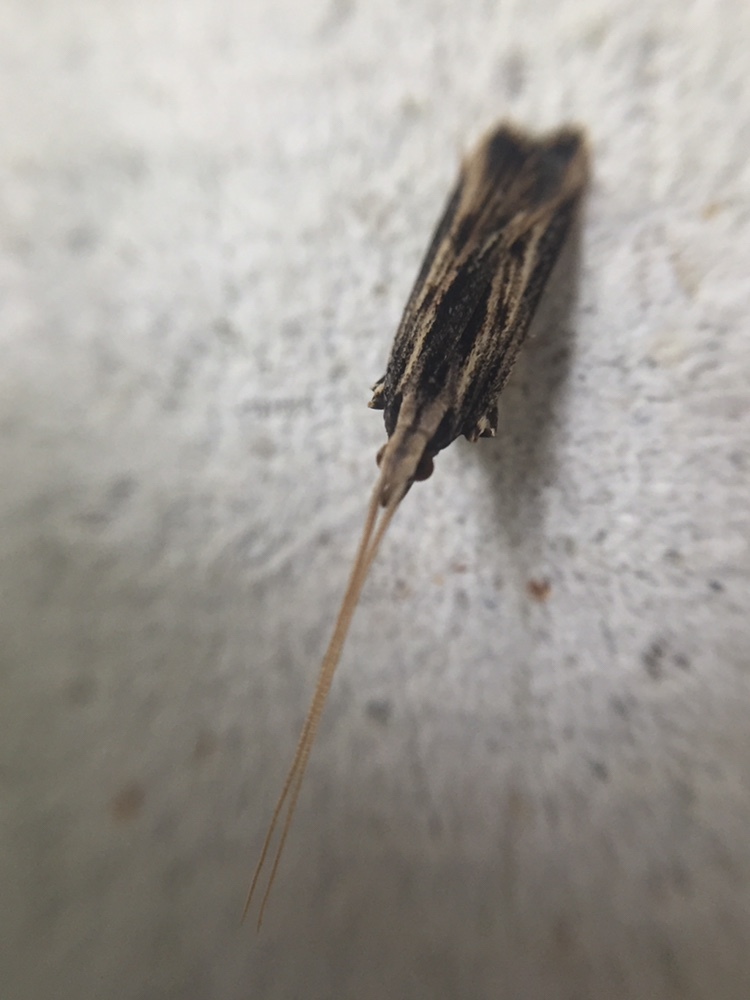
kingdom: Animalia
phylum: Arthropoda
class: Insecta
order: Lepidoptera
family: Lecithoceridae
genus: Sarisophora
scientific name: Sarisophora leucoscia
